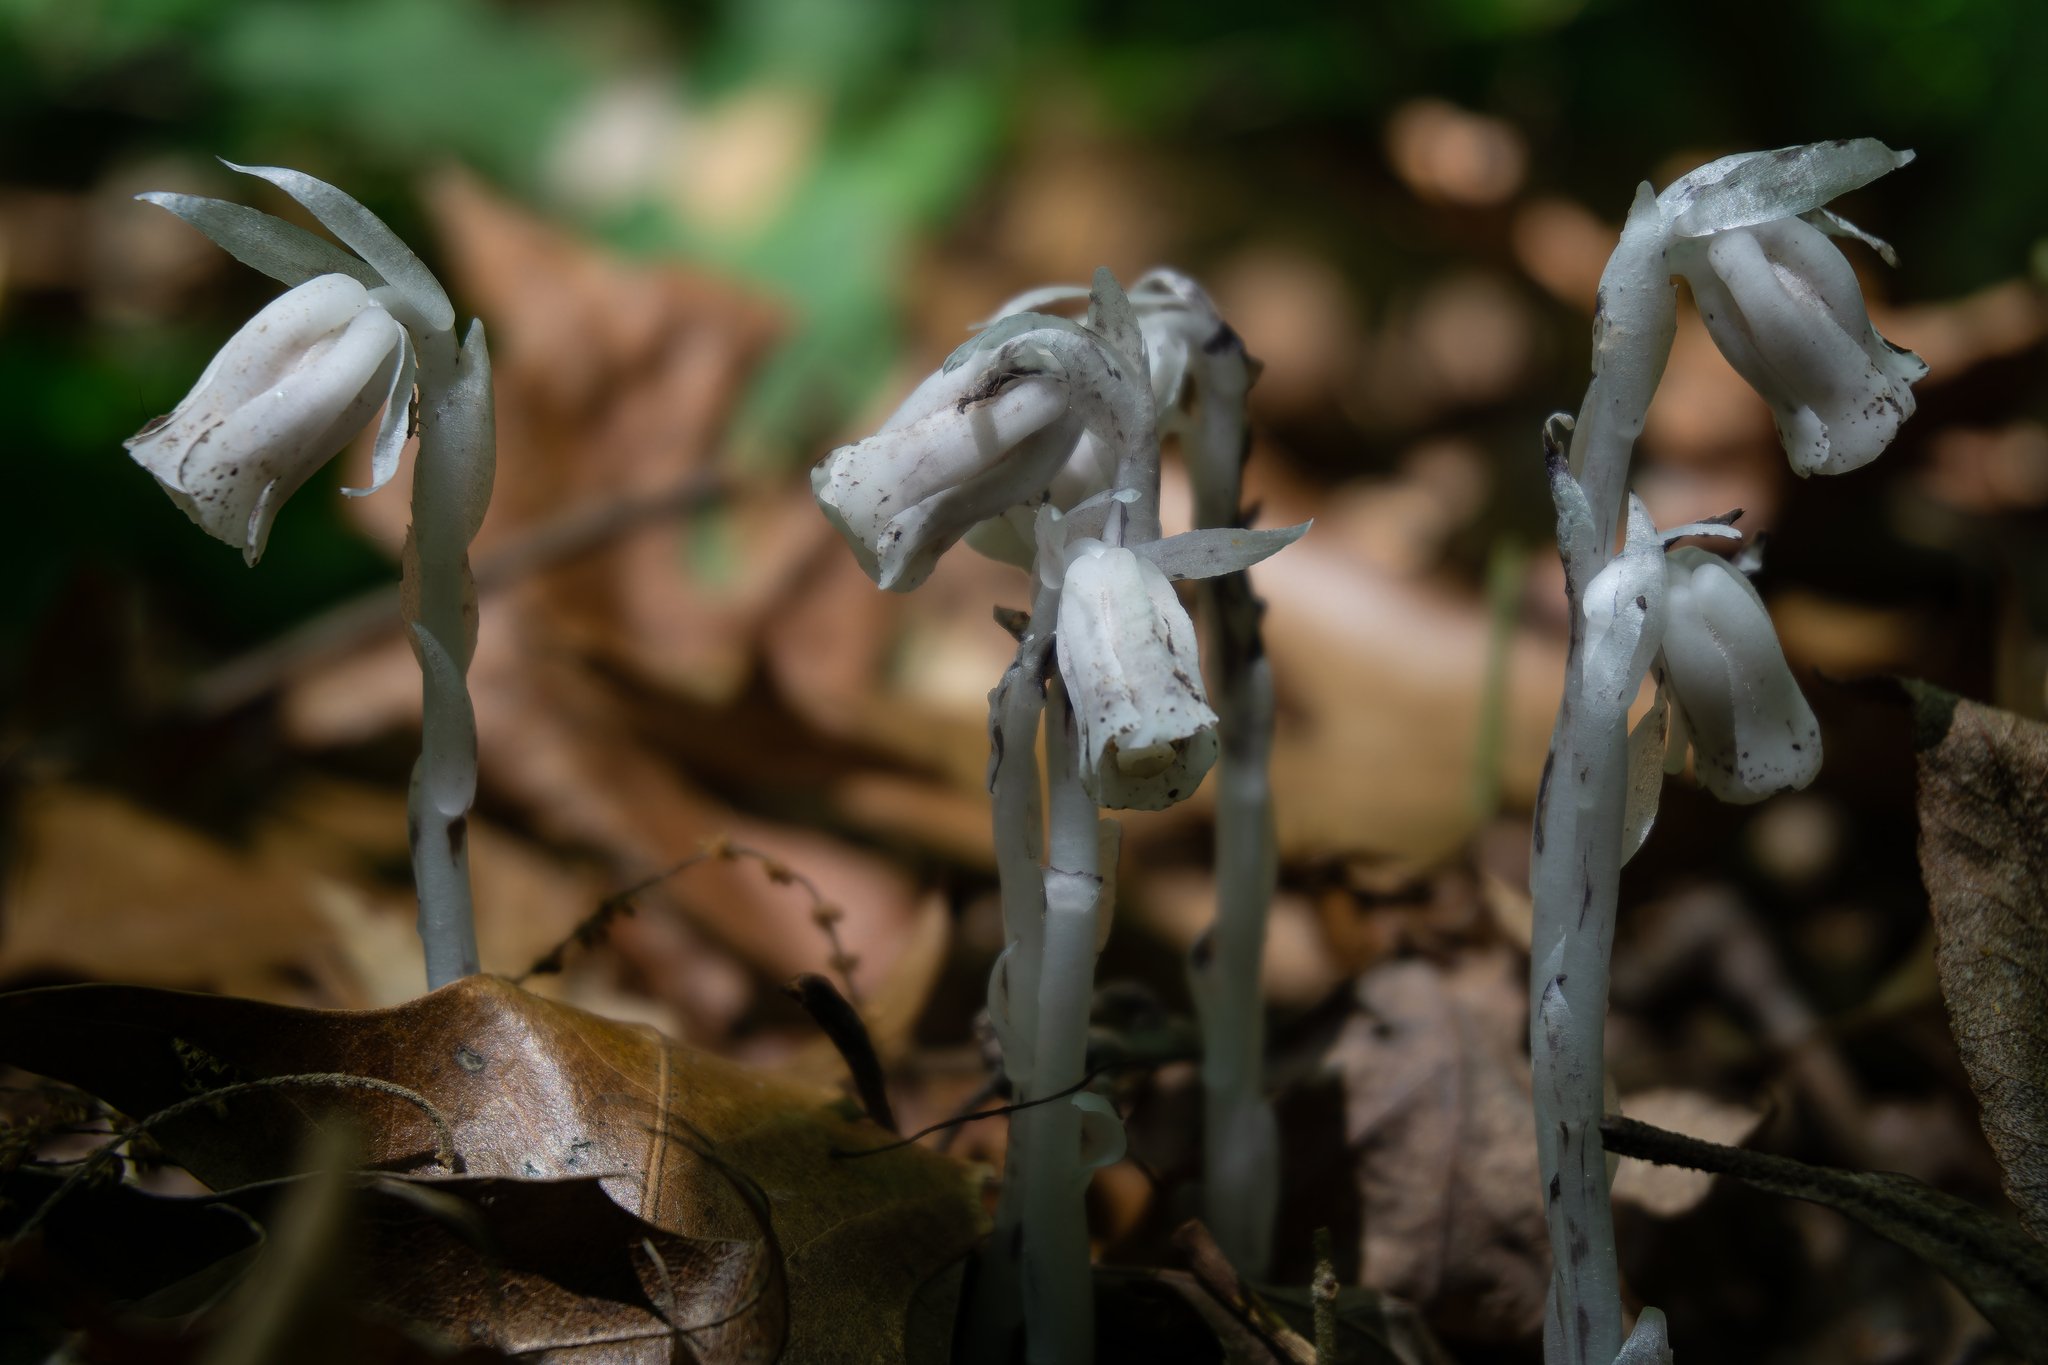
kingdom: Plantae
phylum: Tracheophyta
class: Magnoliopsida
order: Ericales
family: Ericaceae
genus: Monotropa
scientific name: Monotropa uniflora
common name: Convulsion root
